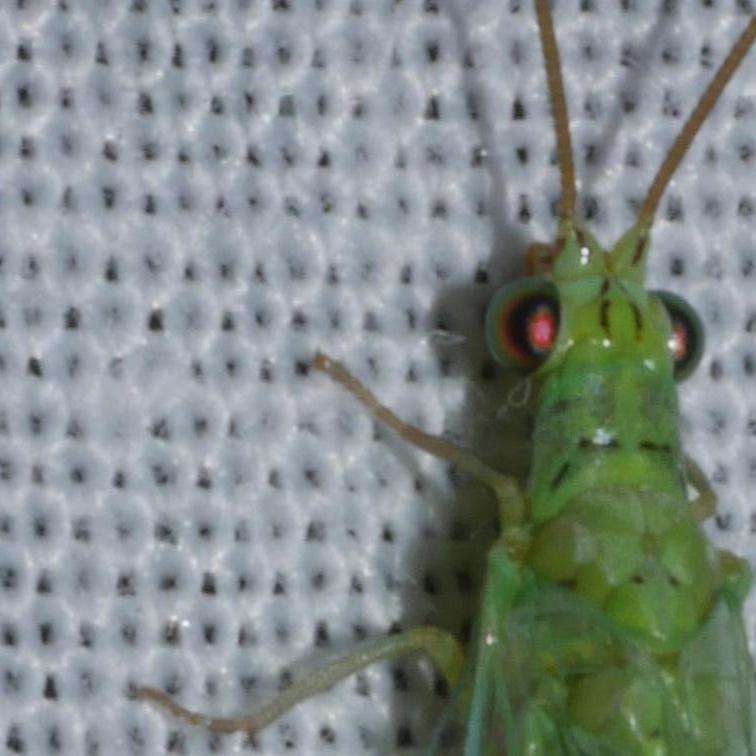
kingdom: Animalia
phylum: Arthropoda
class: Insecta
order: Neuroptera
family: Chrysopidae
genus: Plesiochrysa
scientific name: Plesiochrysa ramburi
